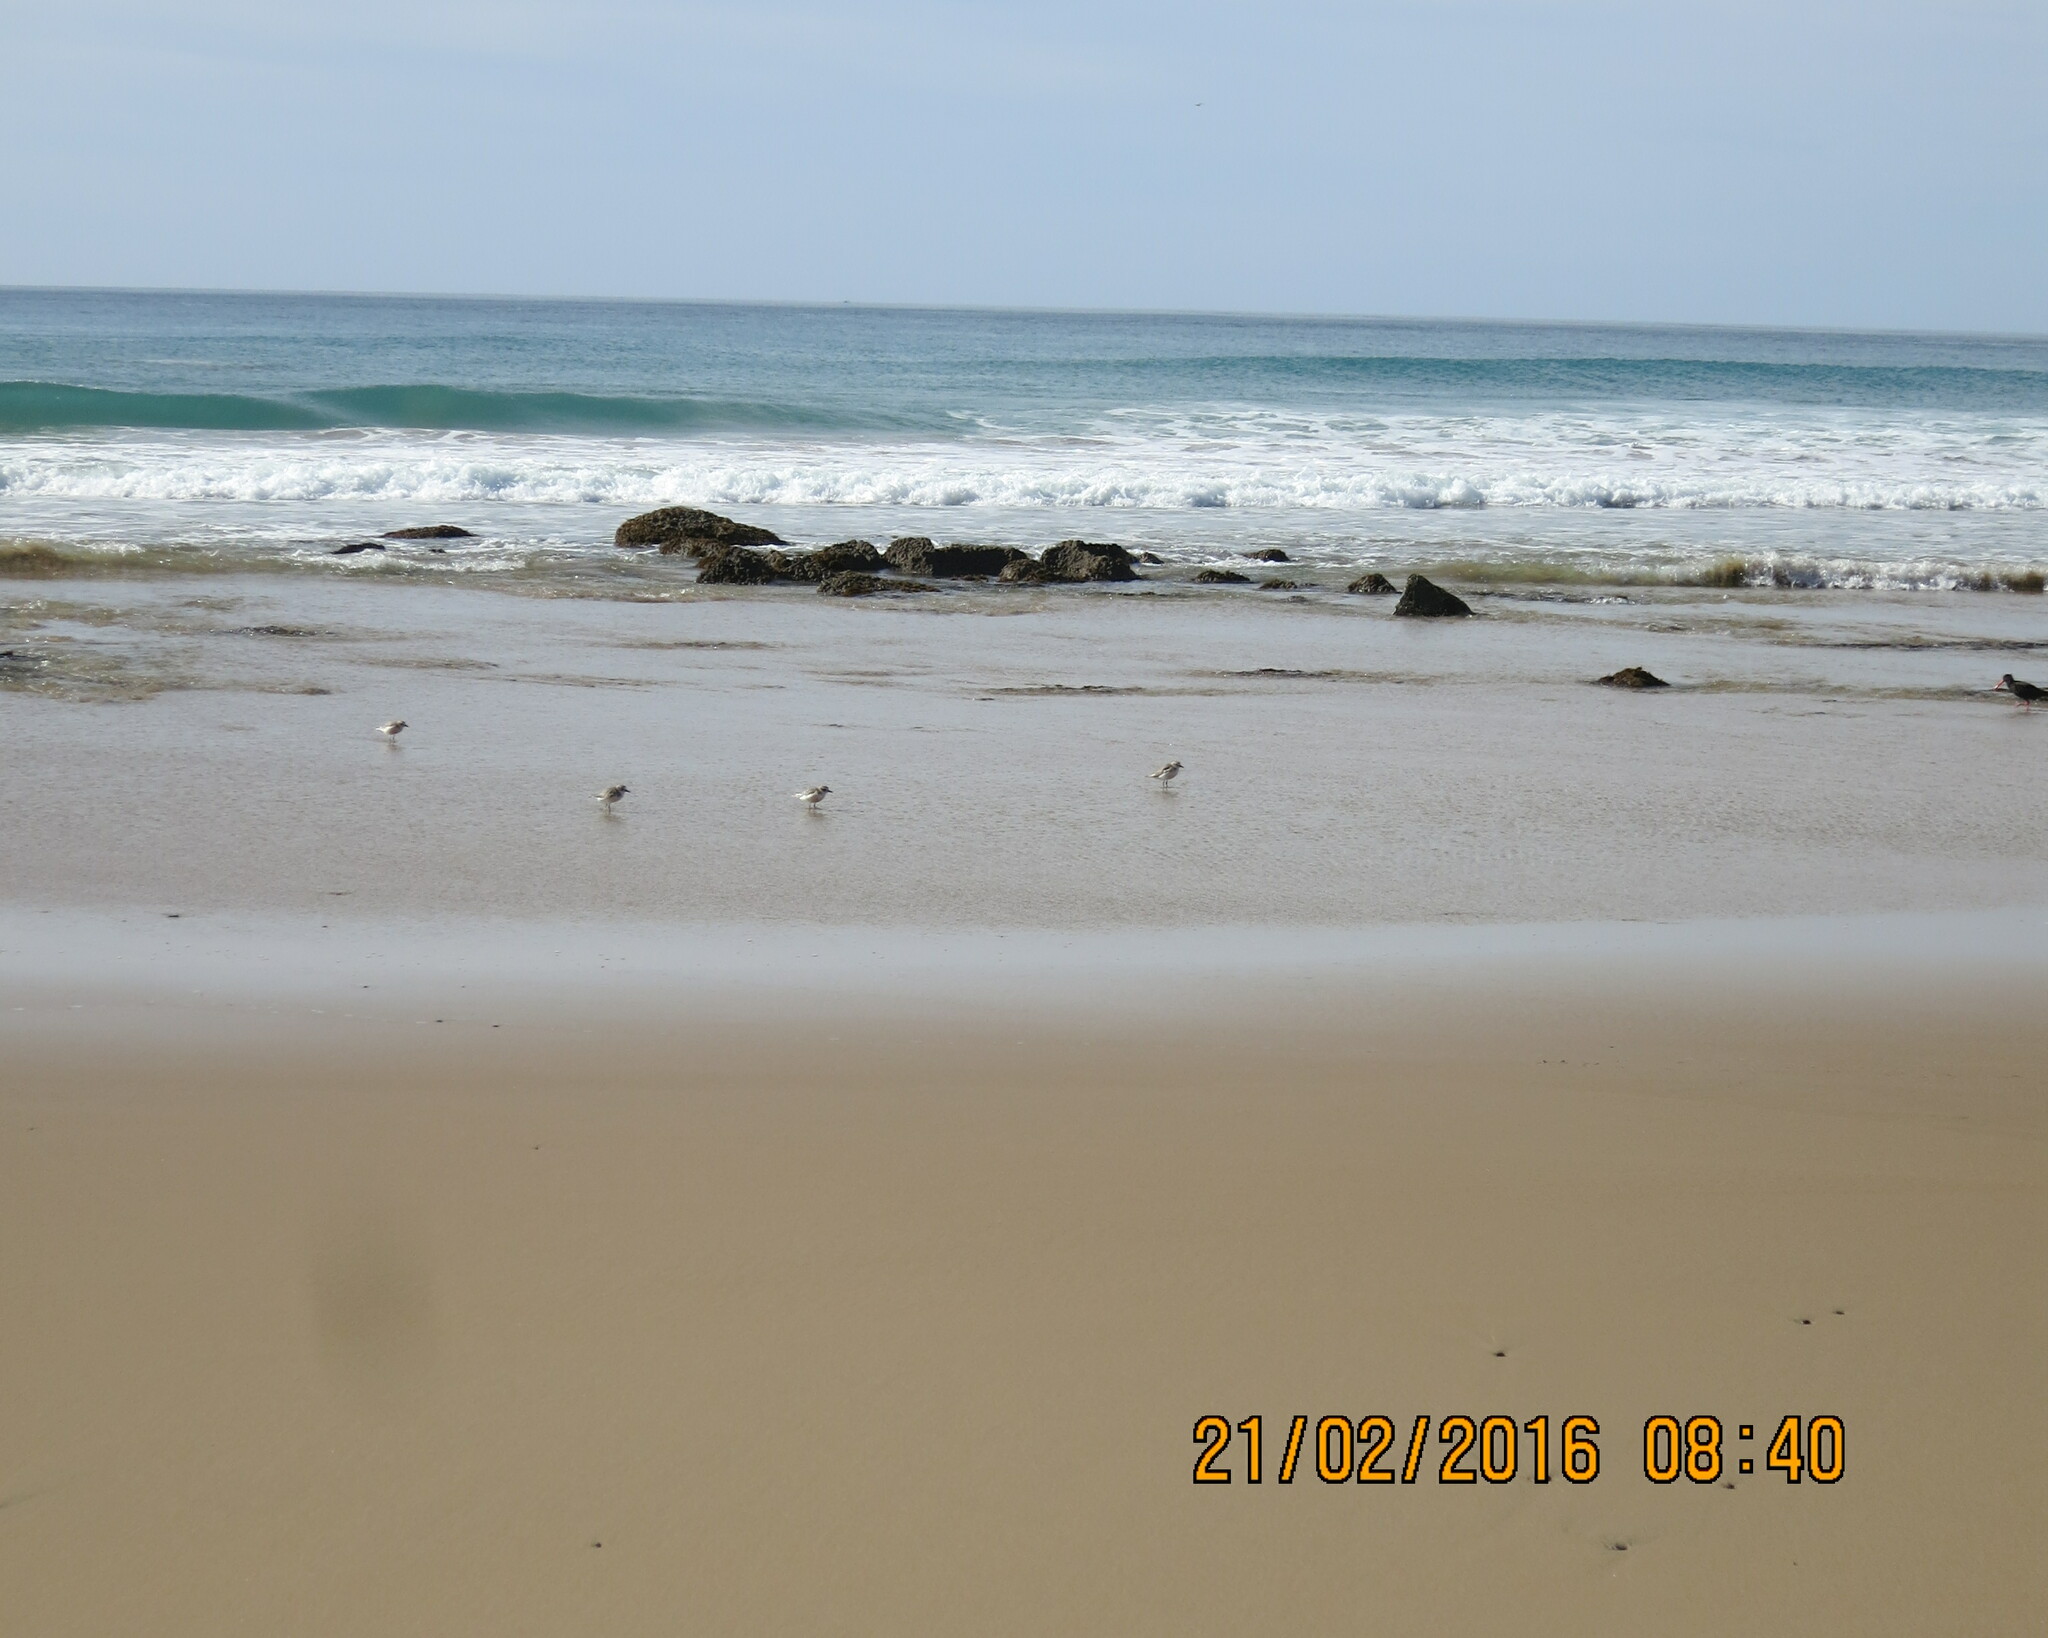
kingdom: Animalia
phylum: Chordata
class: Aves
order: Charadriiformes
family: Charadriidae
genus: Anarhynchus
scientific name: Anarhynchus
